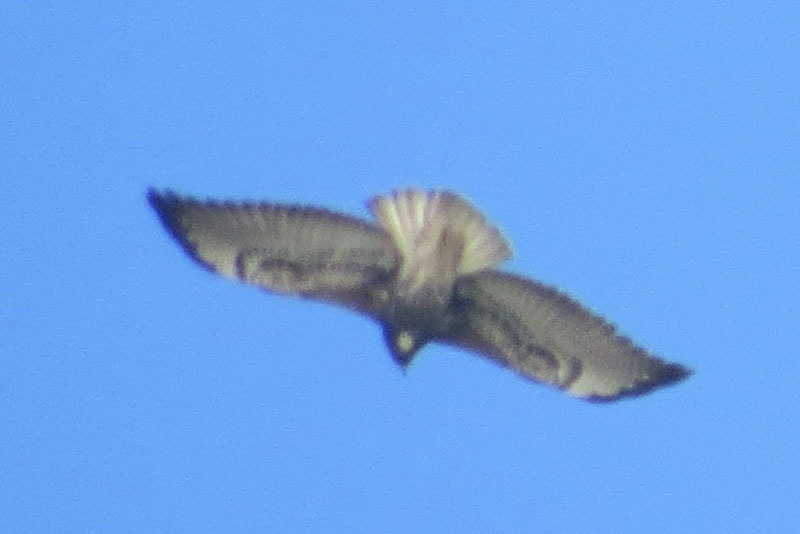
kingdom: Animalia
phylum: Chordata
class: Aves
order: Accipitriformes
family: Accipitridae
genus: Buteo
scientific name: Buteo albicaudatus
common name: White-tailed hawk
